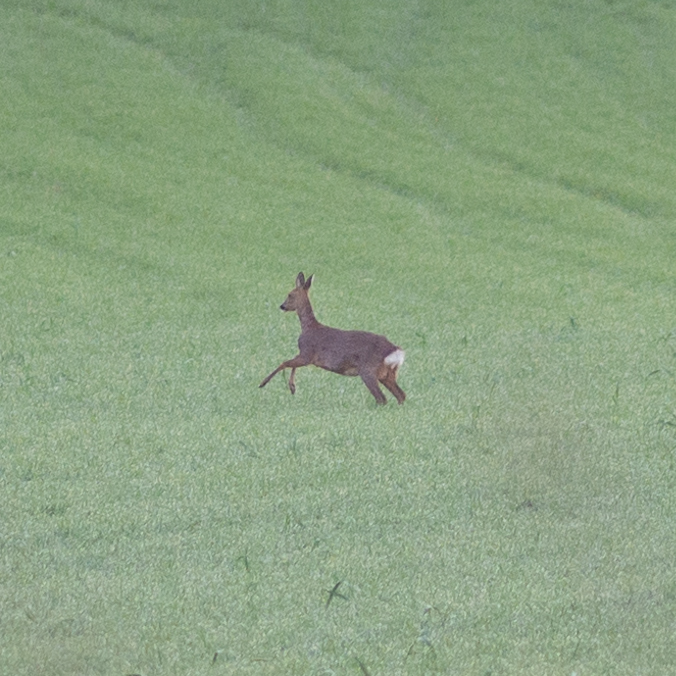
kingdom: Animalia
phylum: Chordata
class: Mammalia
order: Artiodactyla
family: Cervidae
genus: Capreolus
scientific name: Capreolus capreolus
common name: Western roe deer
